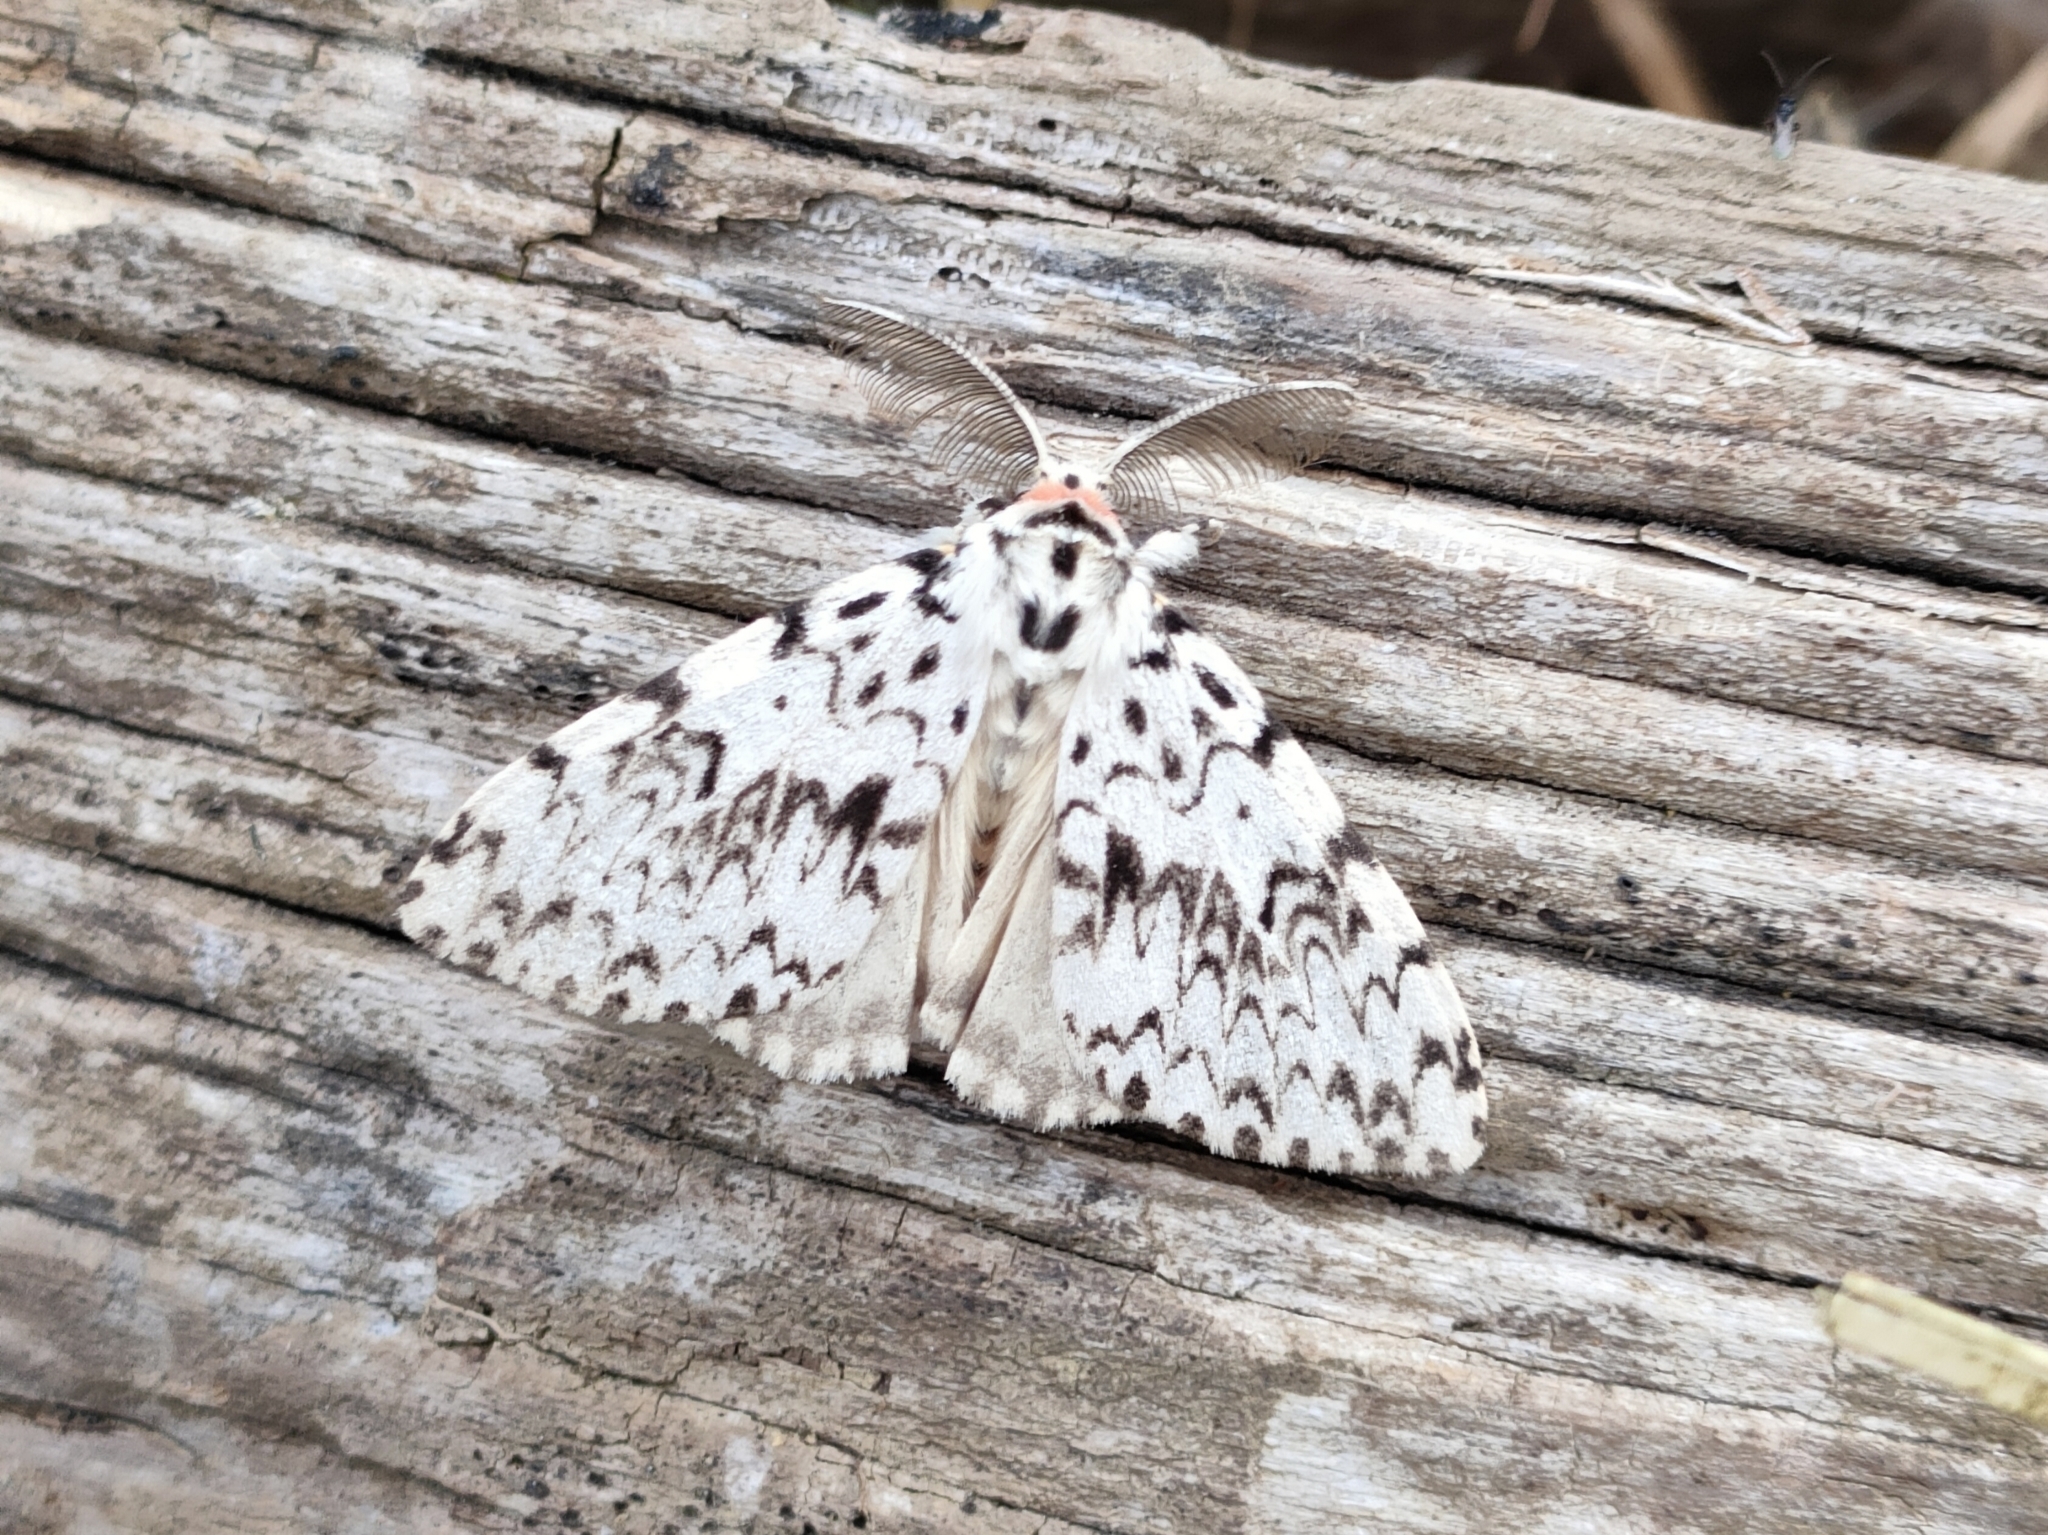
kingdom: Animalia
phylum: Arthropoda
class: Insecta
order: Lepidoptera
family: Erebidae
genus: Lymantria
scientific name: Lymantria monacha
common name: Black arches
